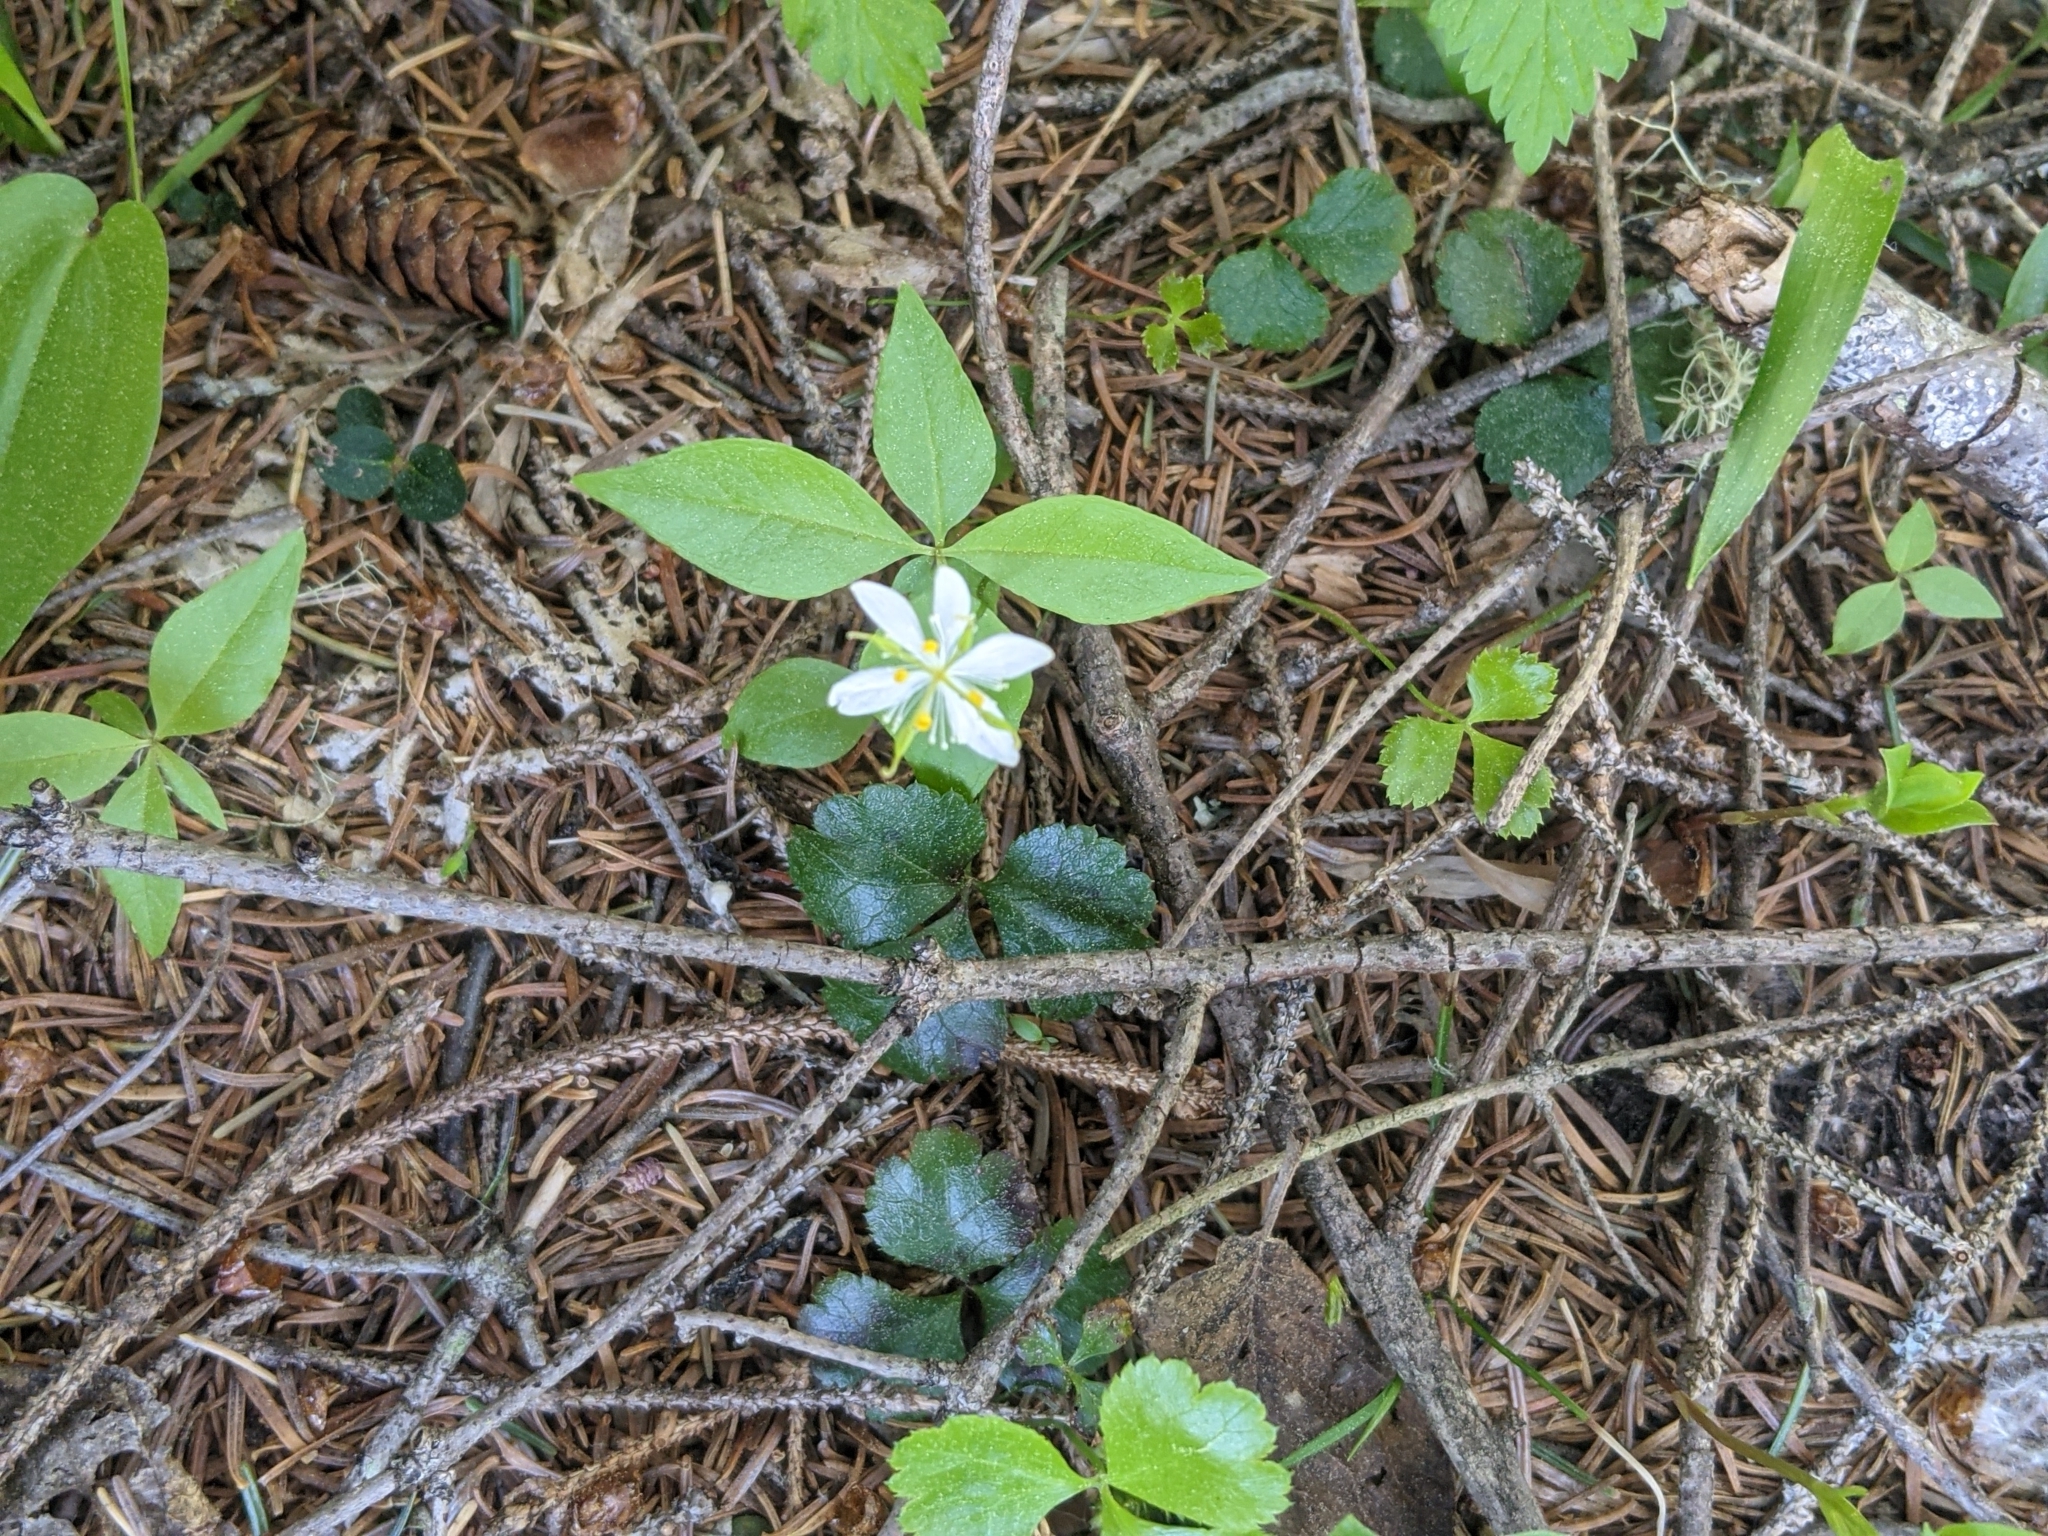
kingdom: Plantae
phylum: Tracheophyta
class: Magnoliopsida
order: Ranunculales
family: Ranunculaceae
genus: Coptis
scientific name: Coptis trifolia
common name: Canker-root
